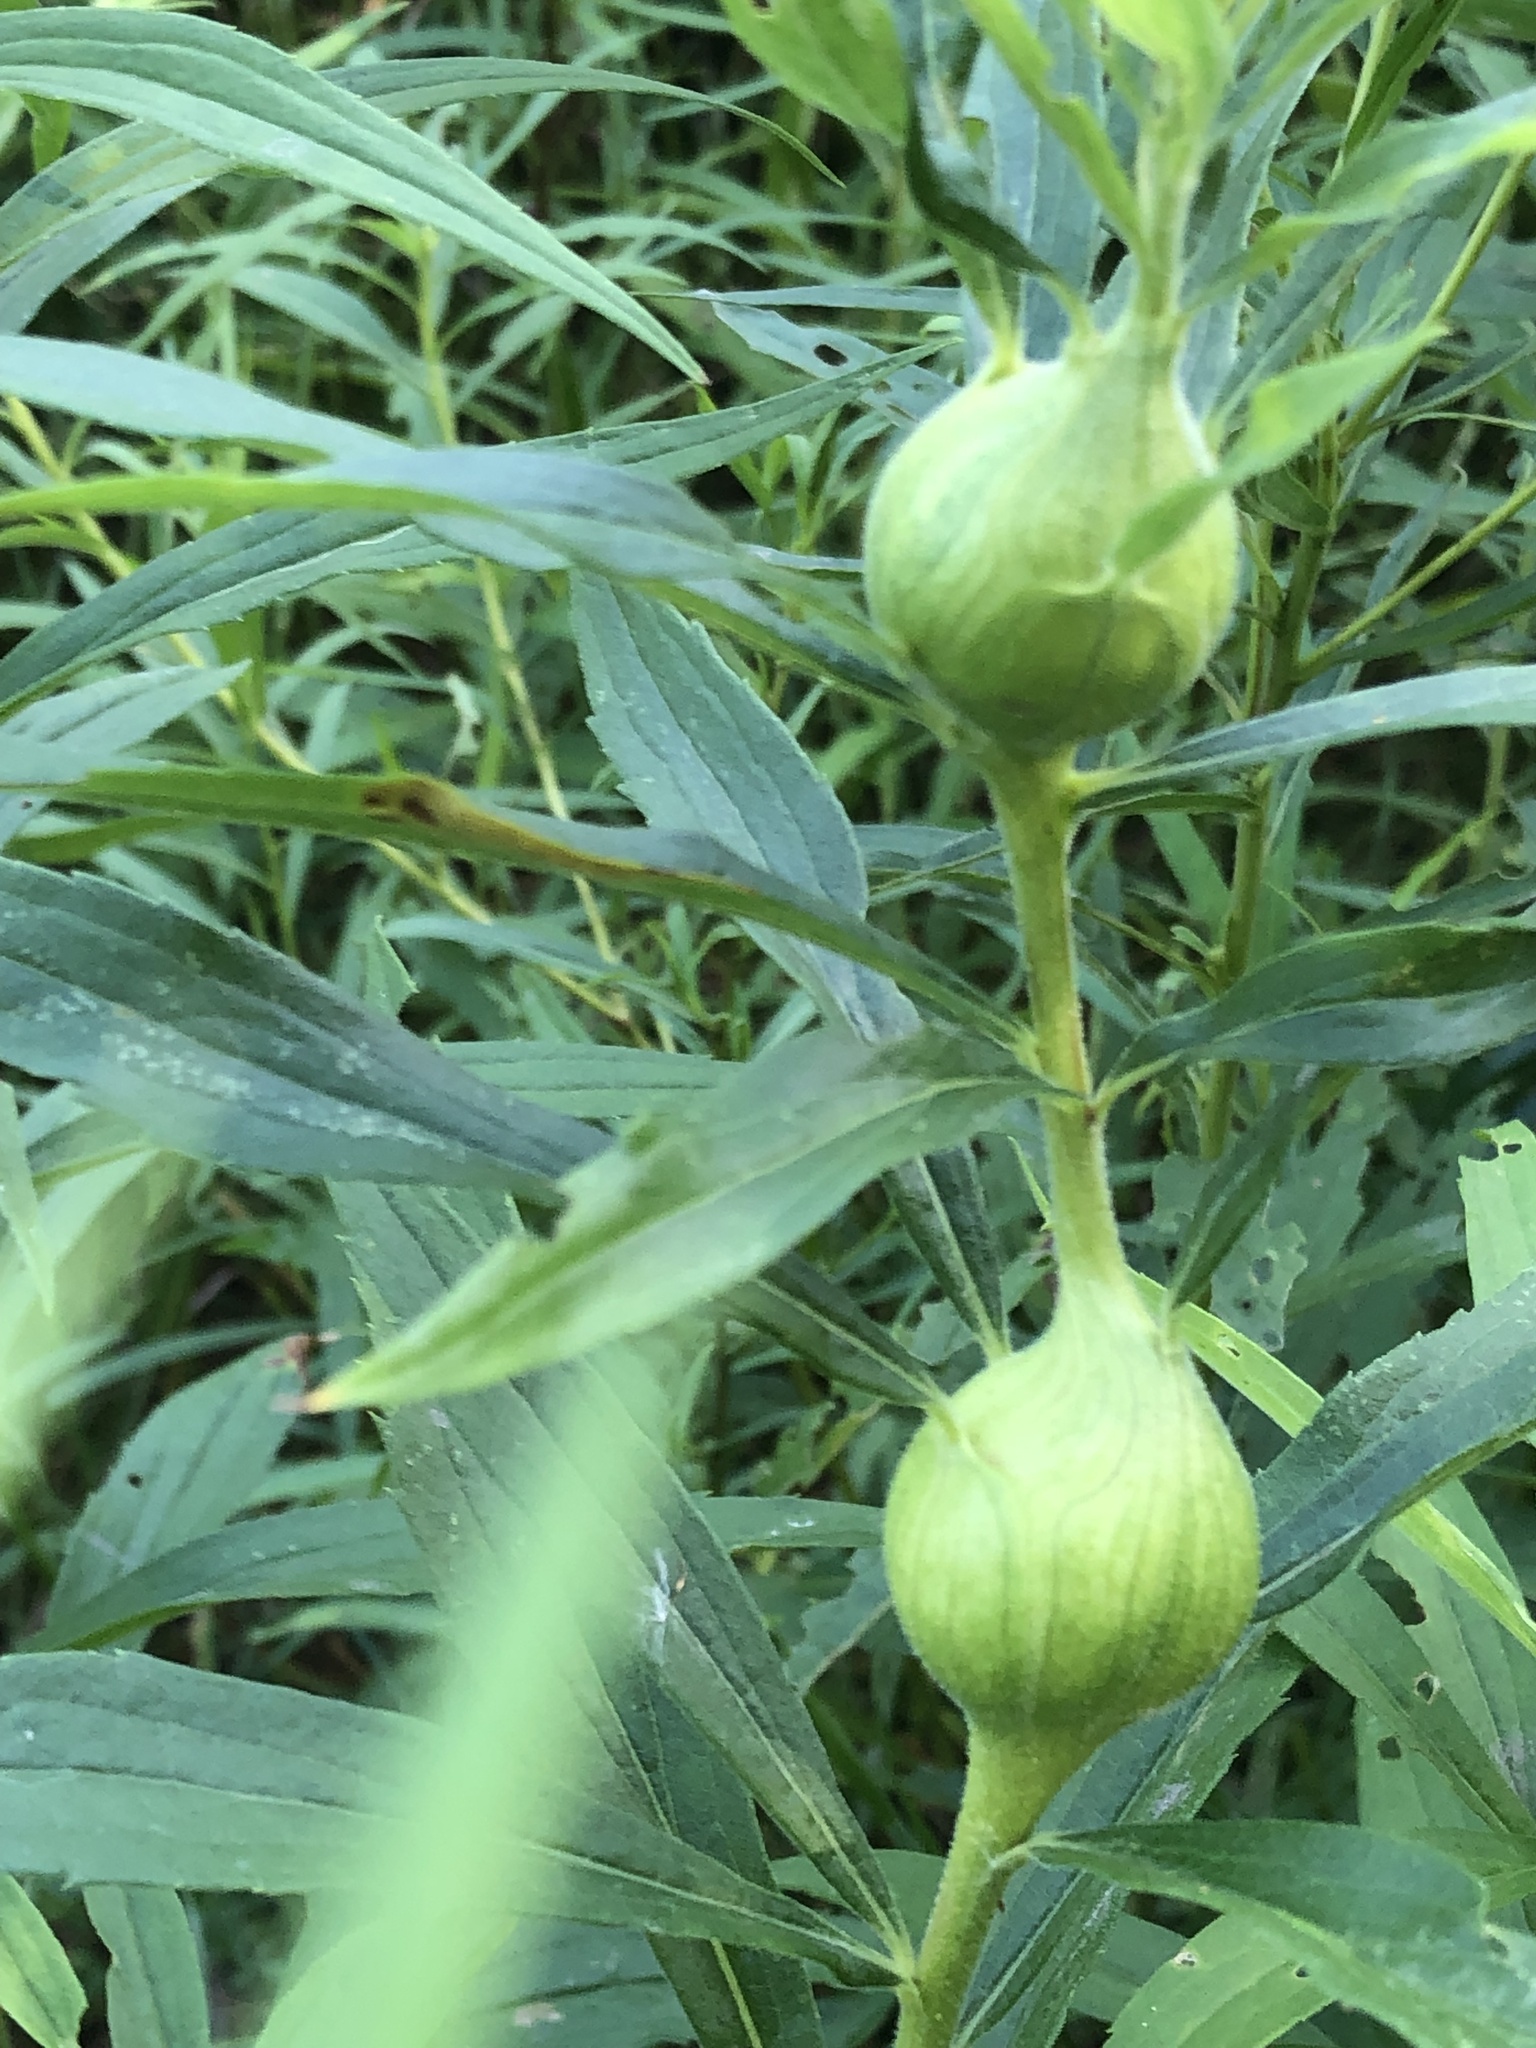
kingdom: Animalia
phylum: Arthropoda
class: Insecta
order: Diptera
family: Tephritidae
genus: Eurosta
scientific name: Eurosta solidaginis
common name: Goldenrod gall fly
